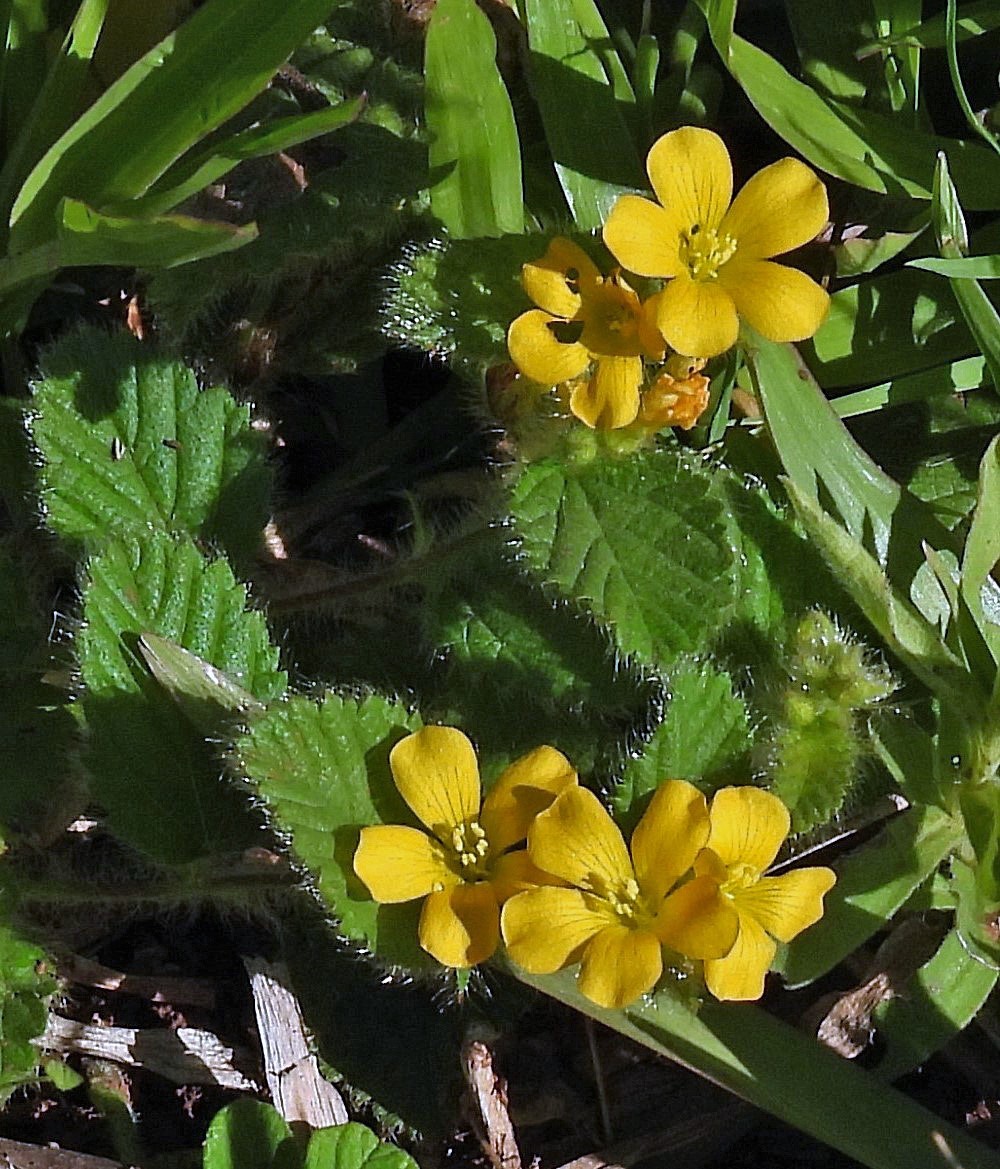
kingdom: Plantae
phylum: Tracheophyta
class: Magnoliopsida
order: Malvales
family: Malvaceae
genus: Melochia
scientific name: Melochia chamaedrys
